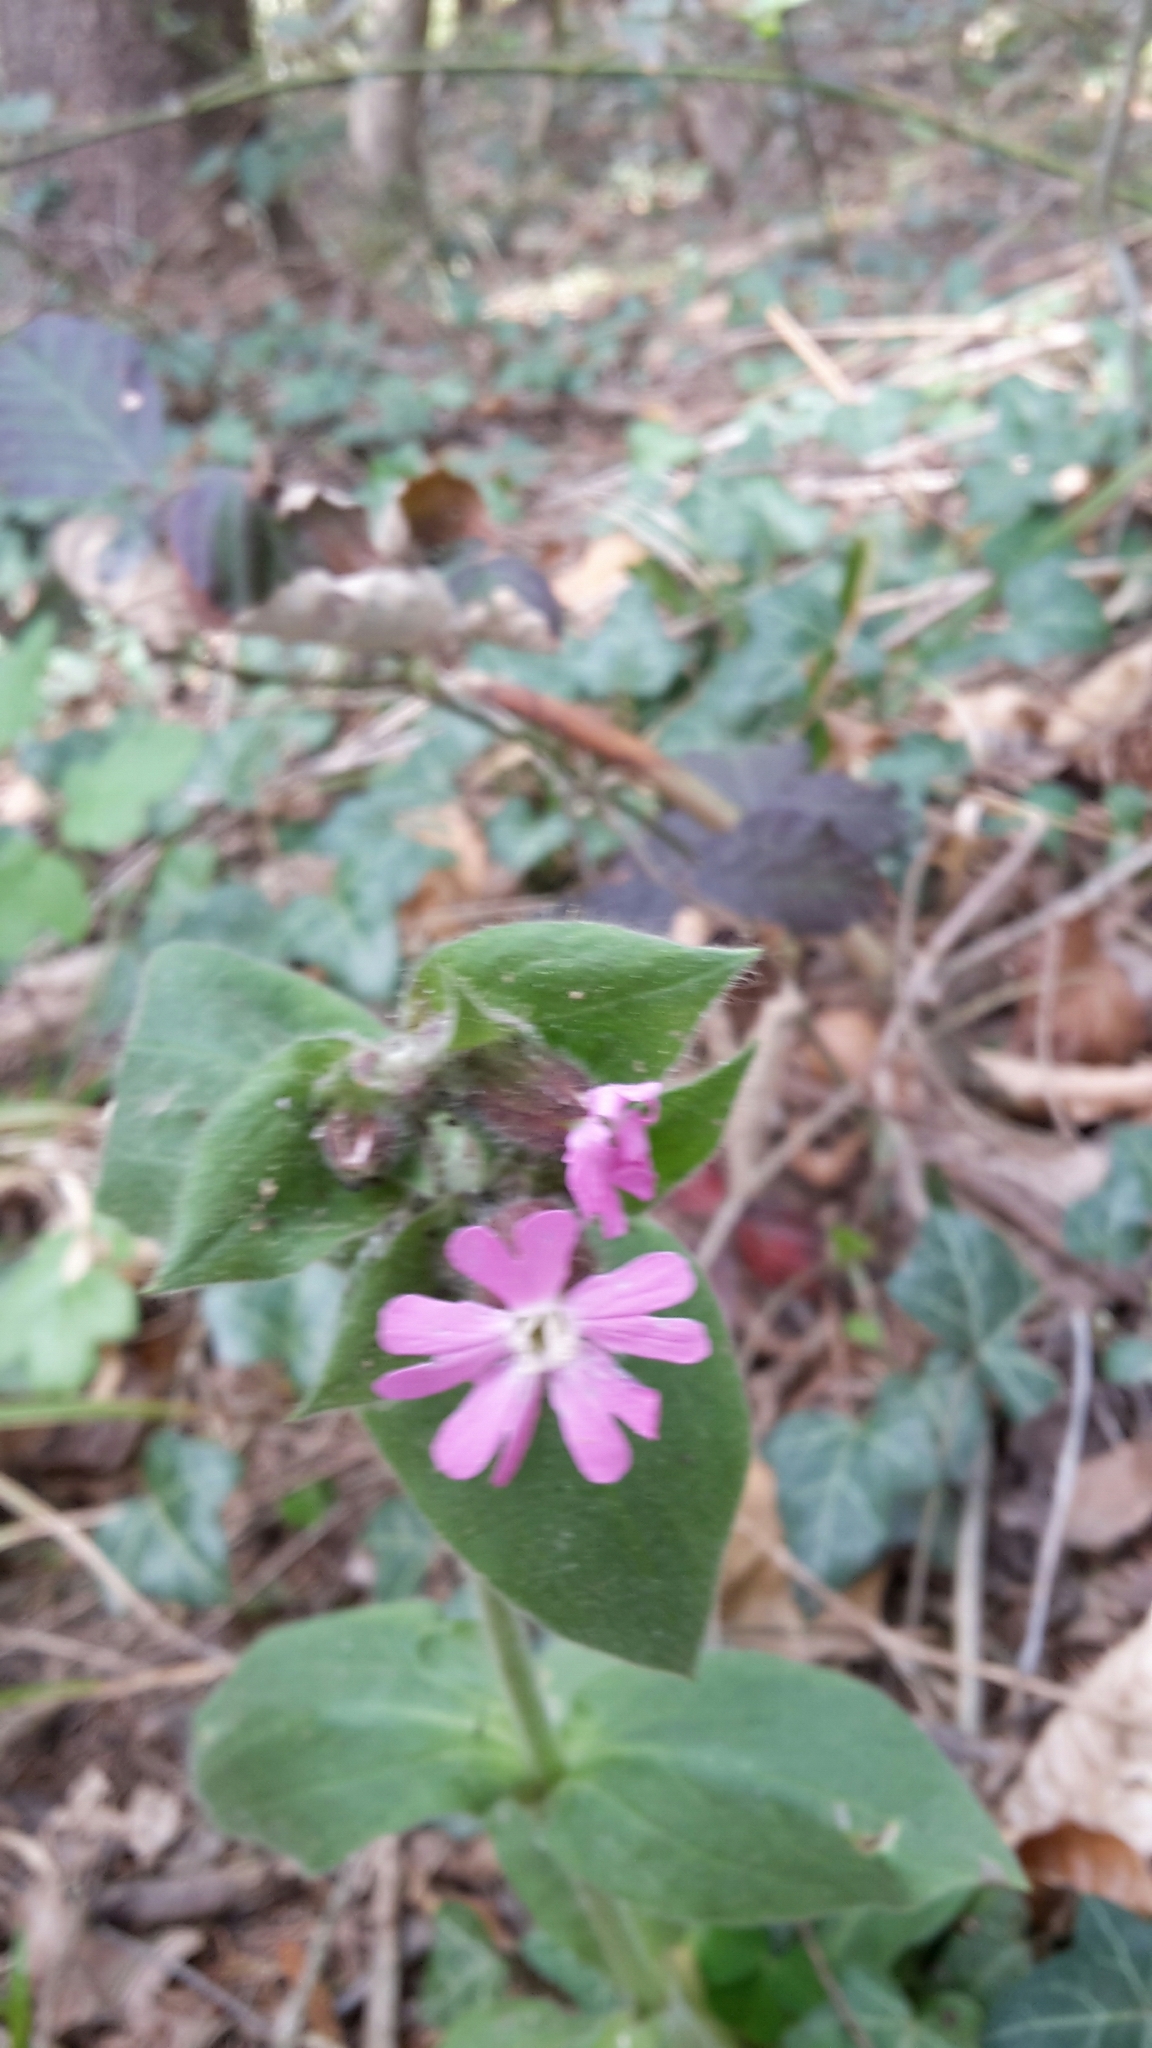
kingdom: Plantae
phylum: Tracheophyta
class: Magnoliopsida
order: Caryophyllales
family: Caryophyllaceae
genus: Silene
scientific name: Silene dioica
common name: Red campion
